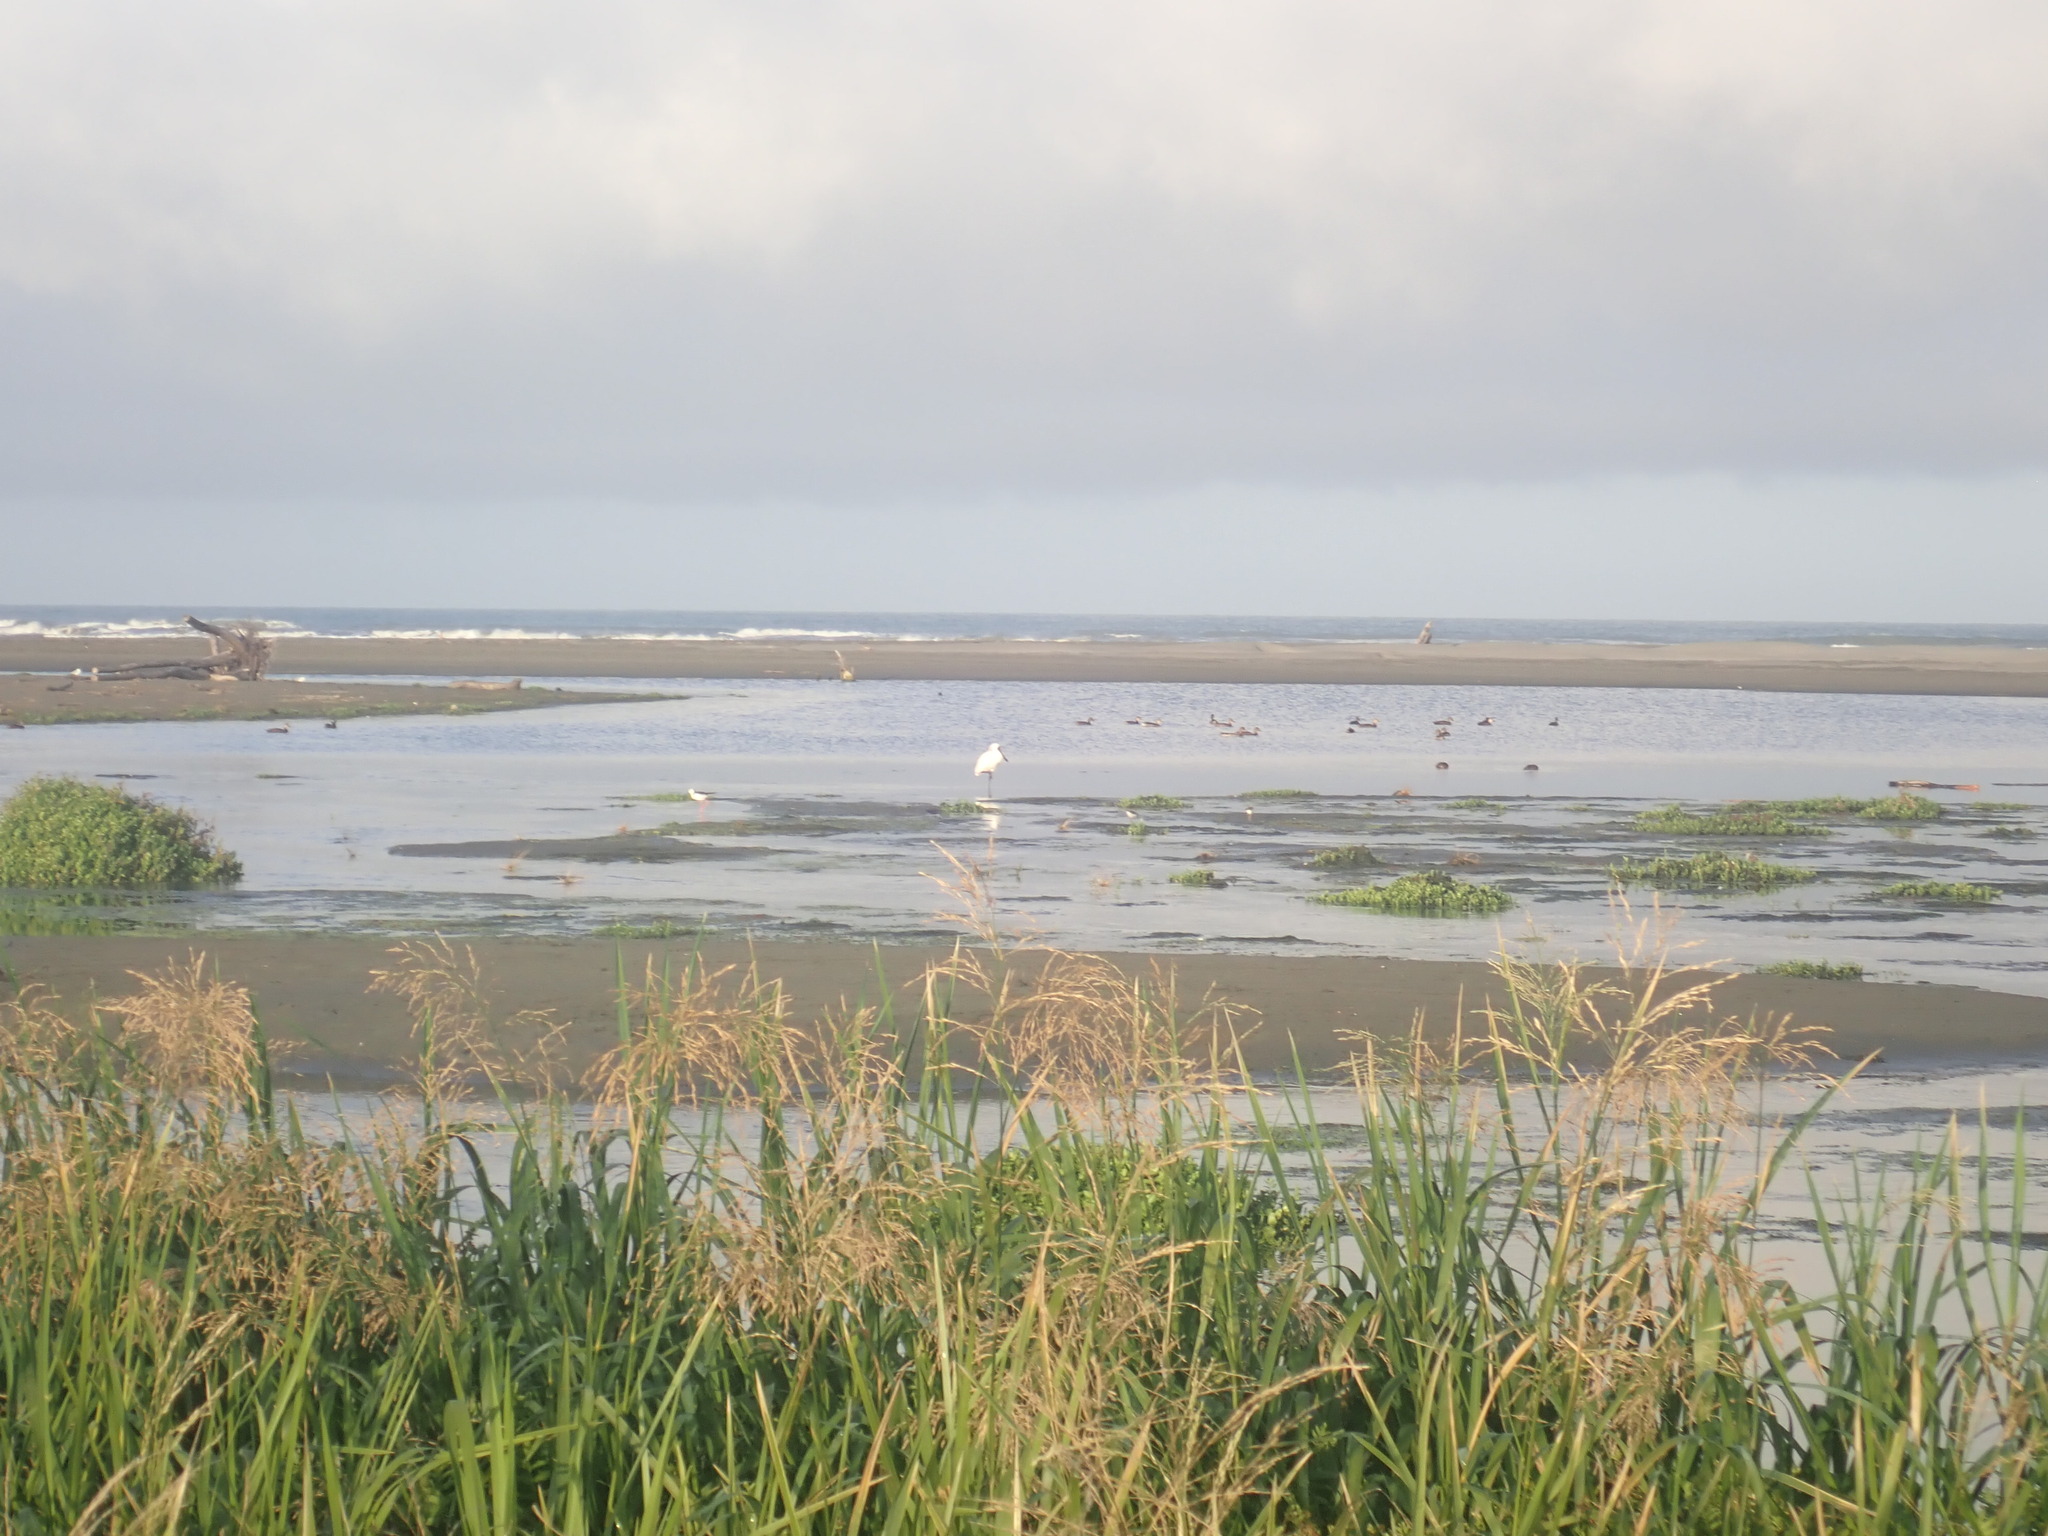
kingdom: Animalia
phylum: Chordata
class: Aves
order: Pelecaniformes
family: Threskiornithidae
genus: Platalea
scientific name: Platalea regia
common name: Royal spoonbill
